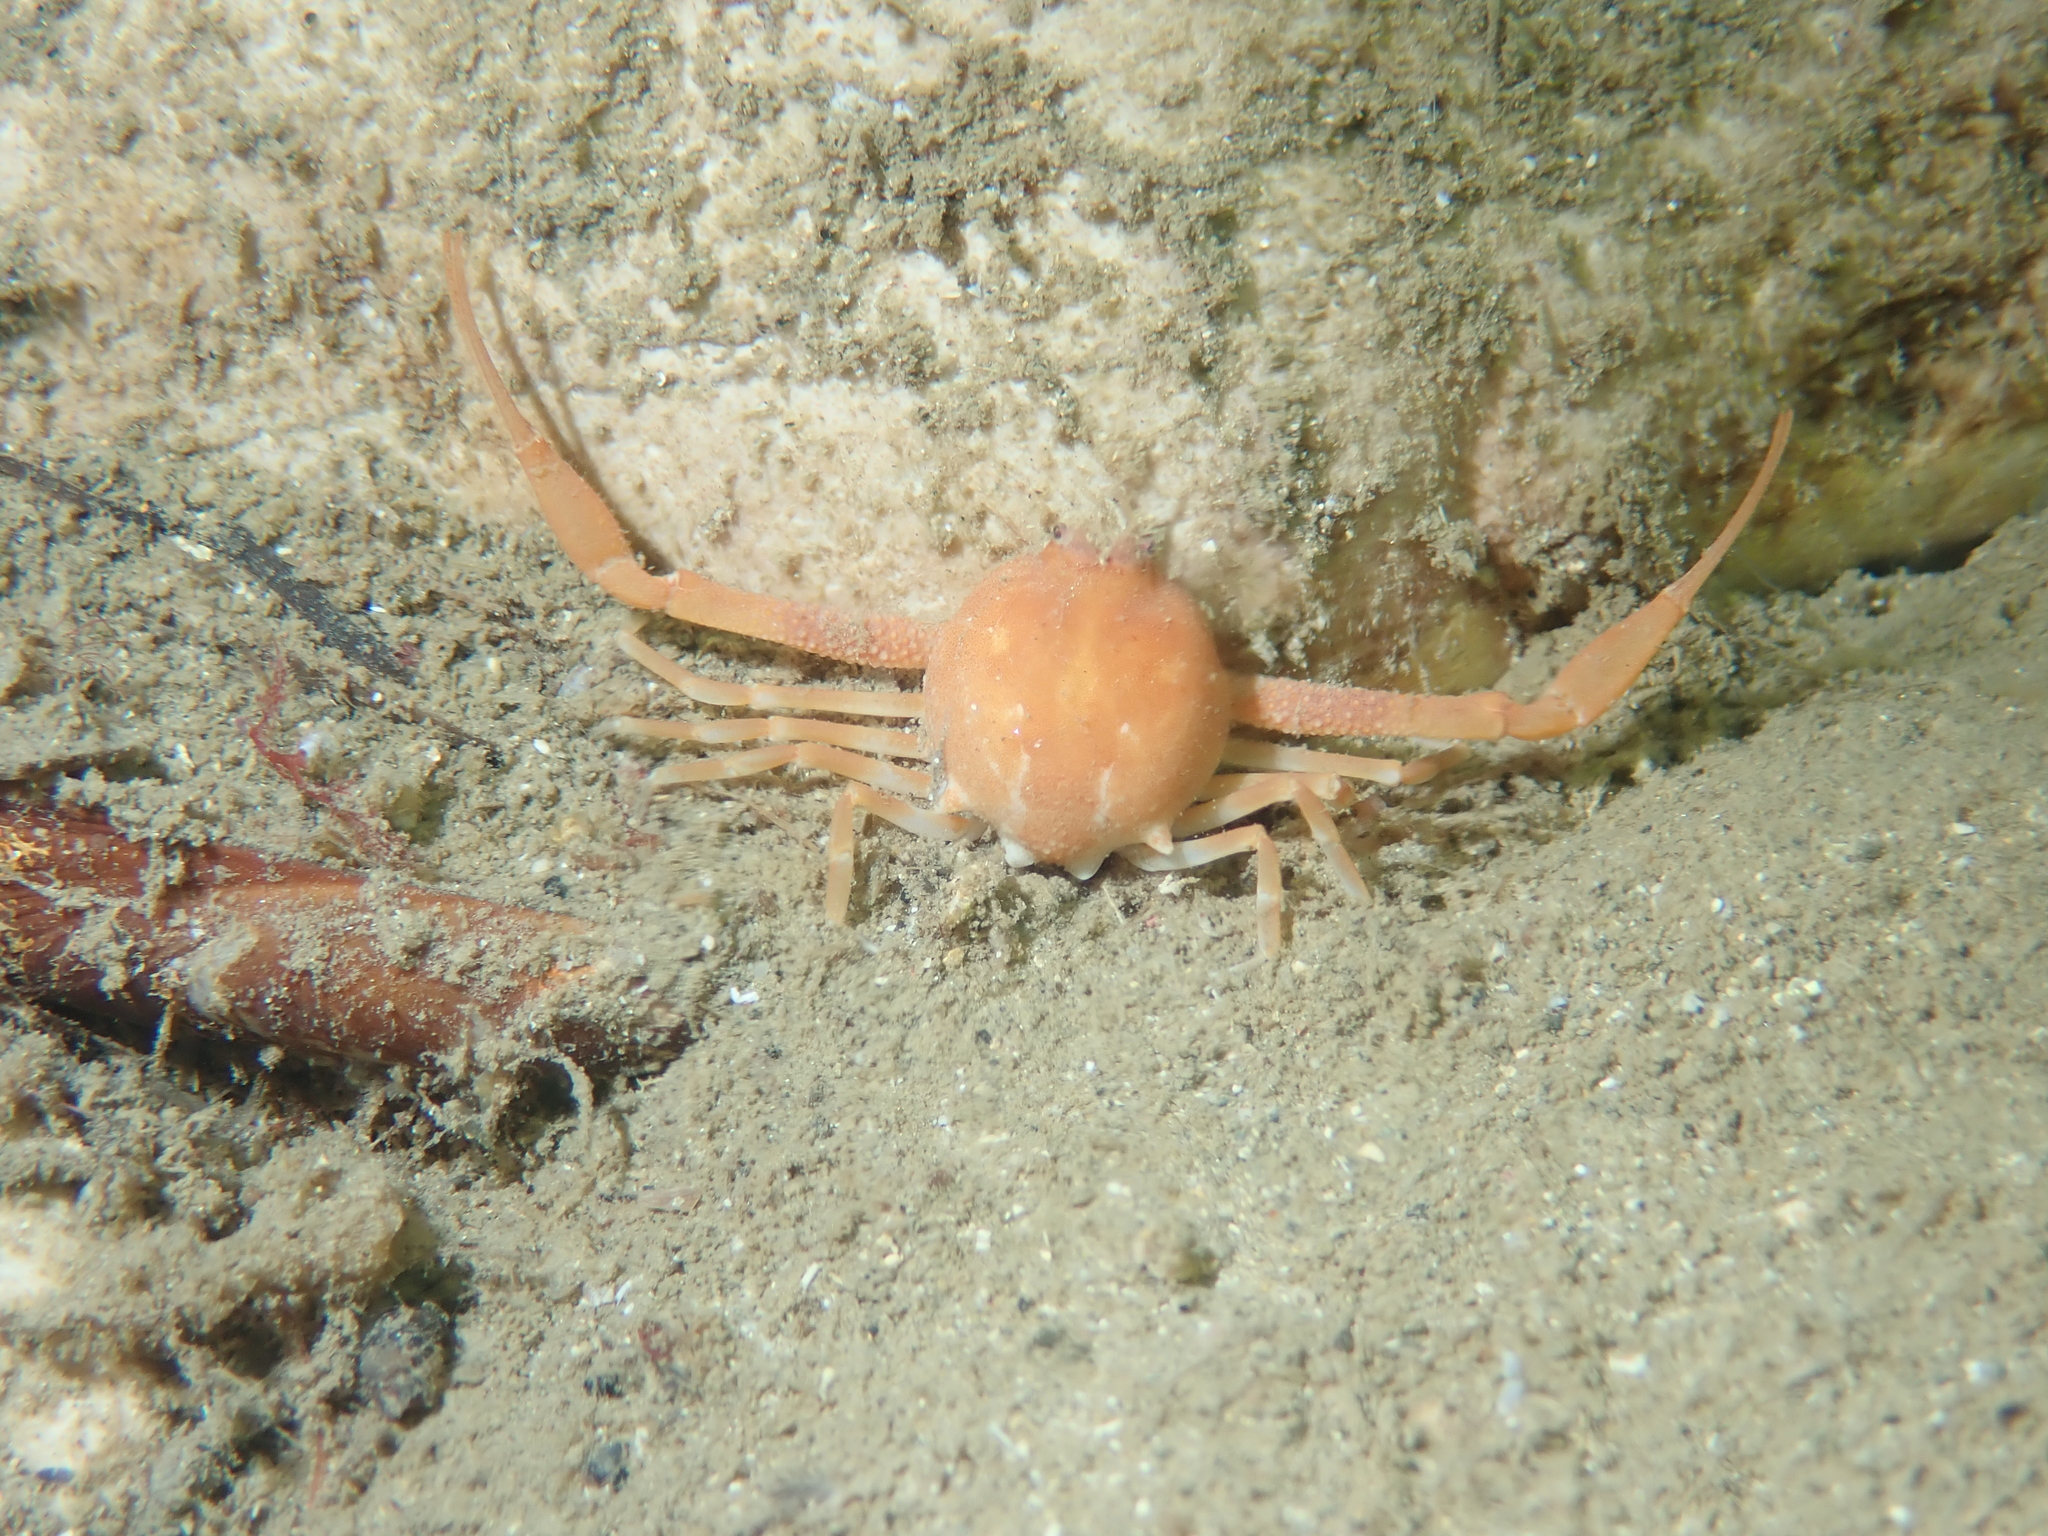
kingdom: Animalia
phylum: Arthropoda
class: Malacostraca
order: Decapoda
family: Leucosiidae
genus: Ilia
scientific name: Ilia nucleus
